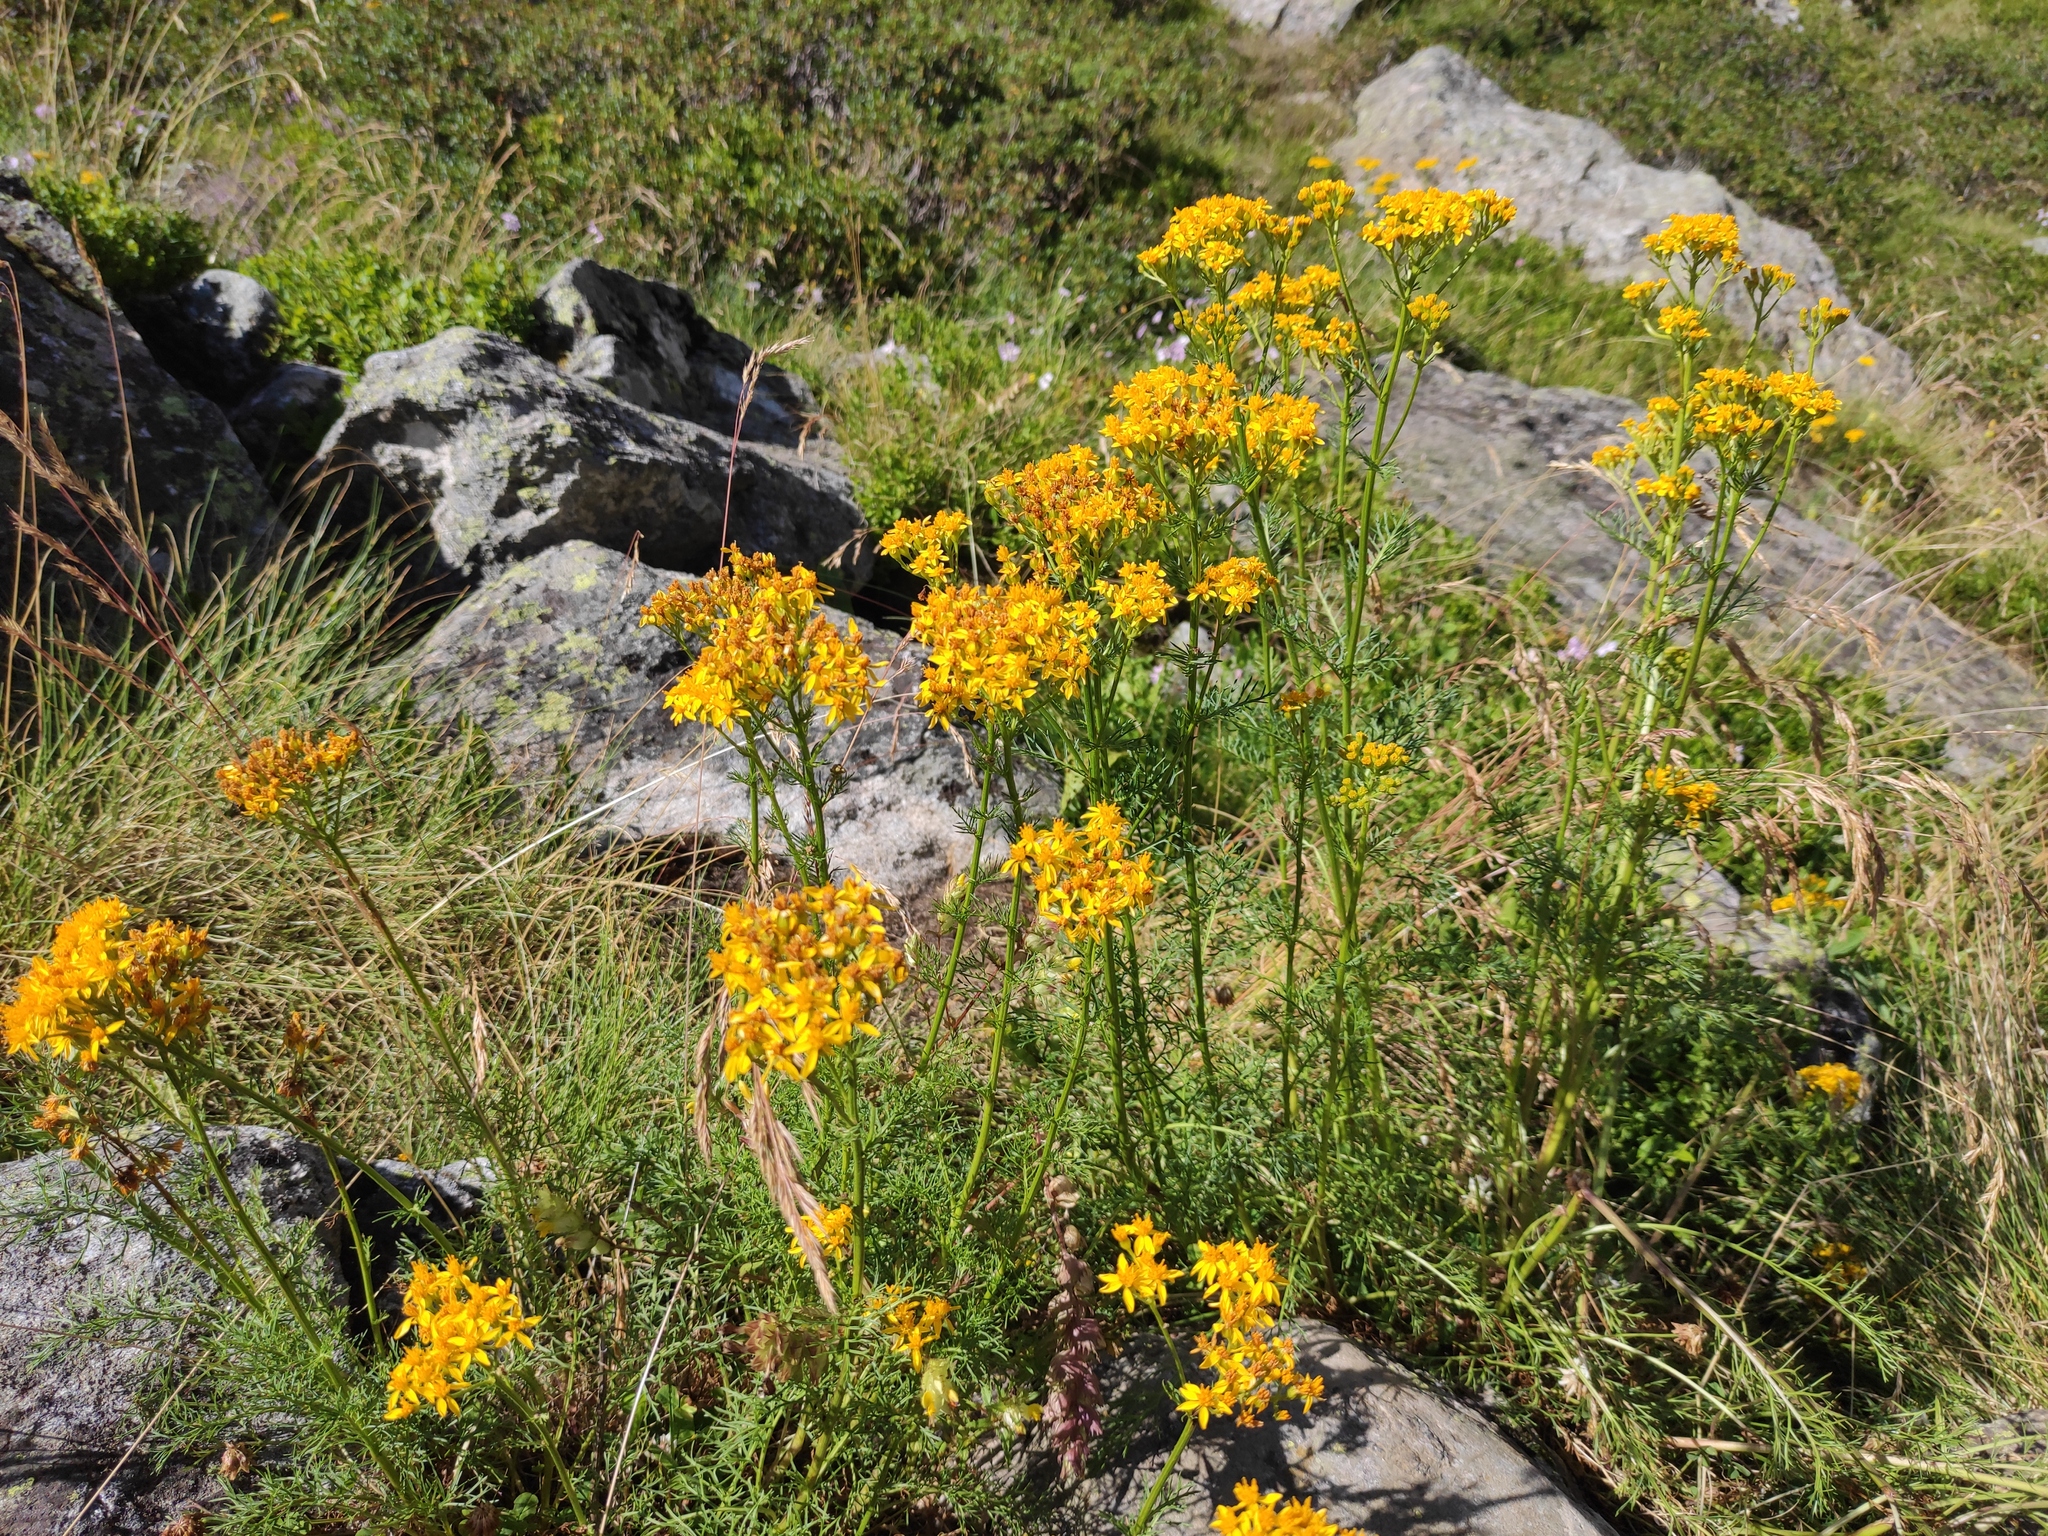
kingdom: Plantae
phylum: Tracheophyta
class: Magnoliopsida
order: Asterales
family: Asteraceae
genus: Jacobaea
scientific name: Jacobaea adonidifolia
